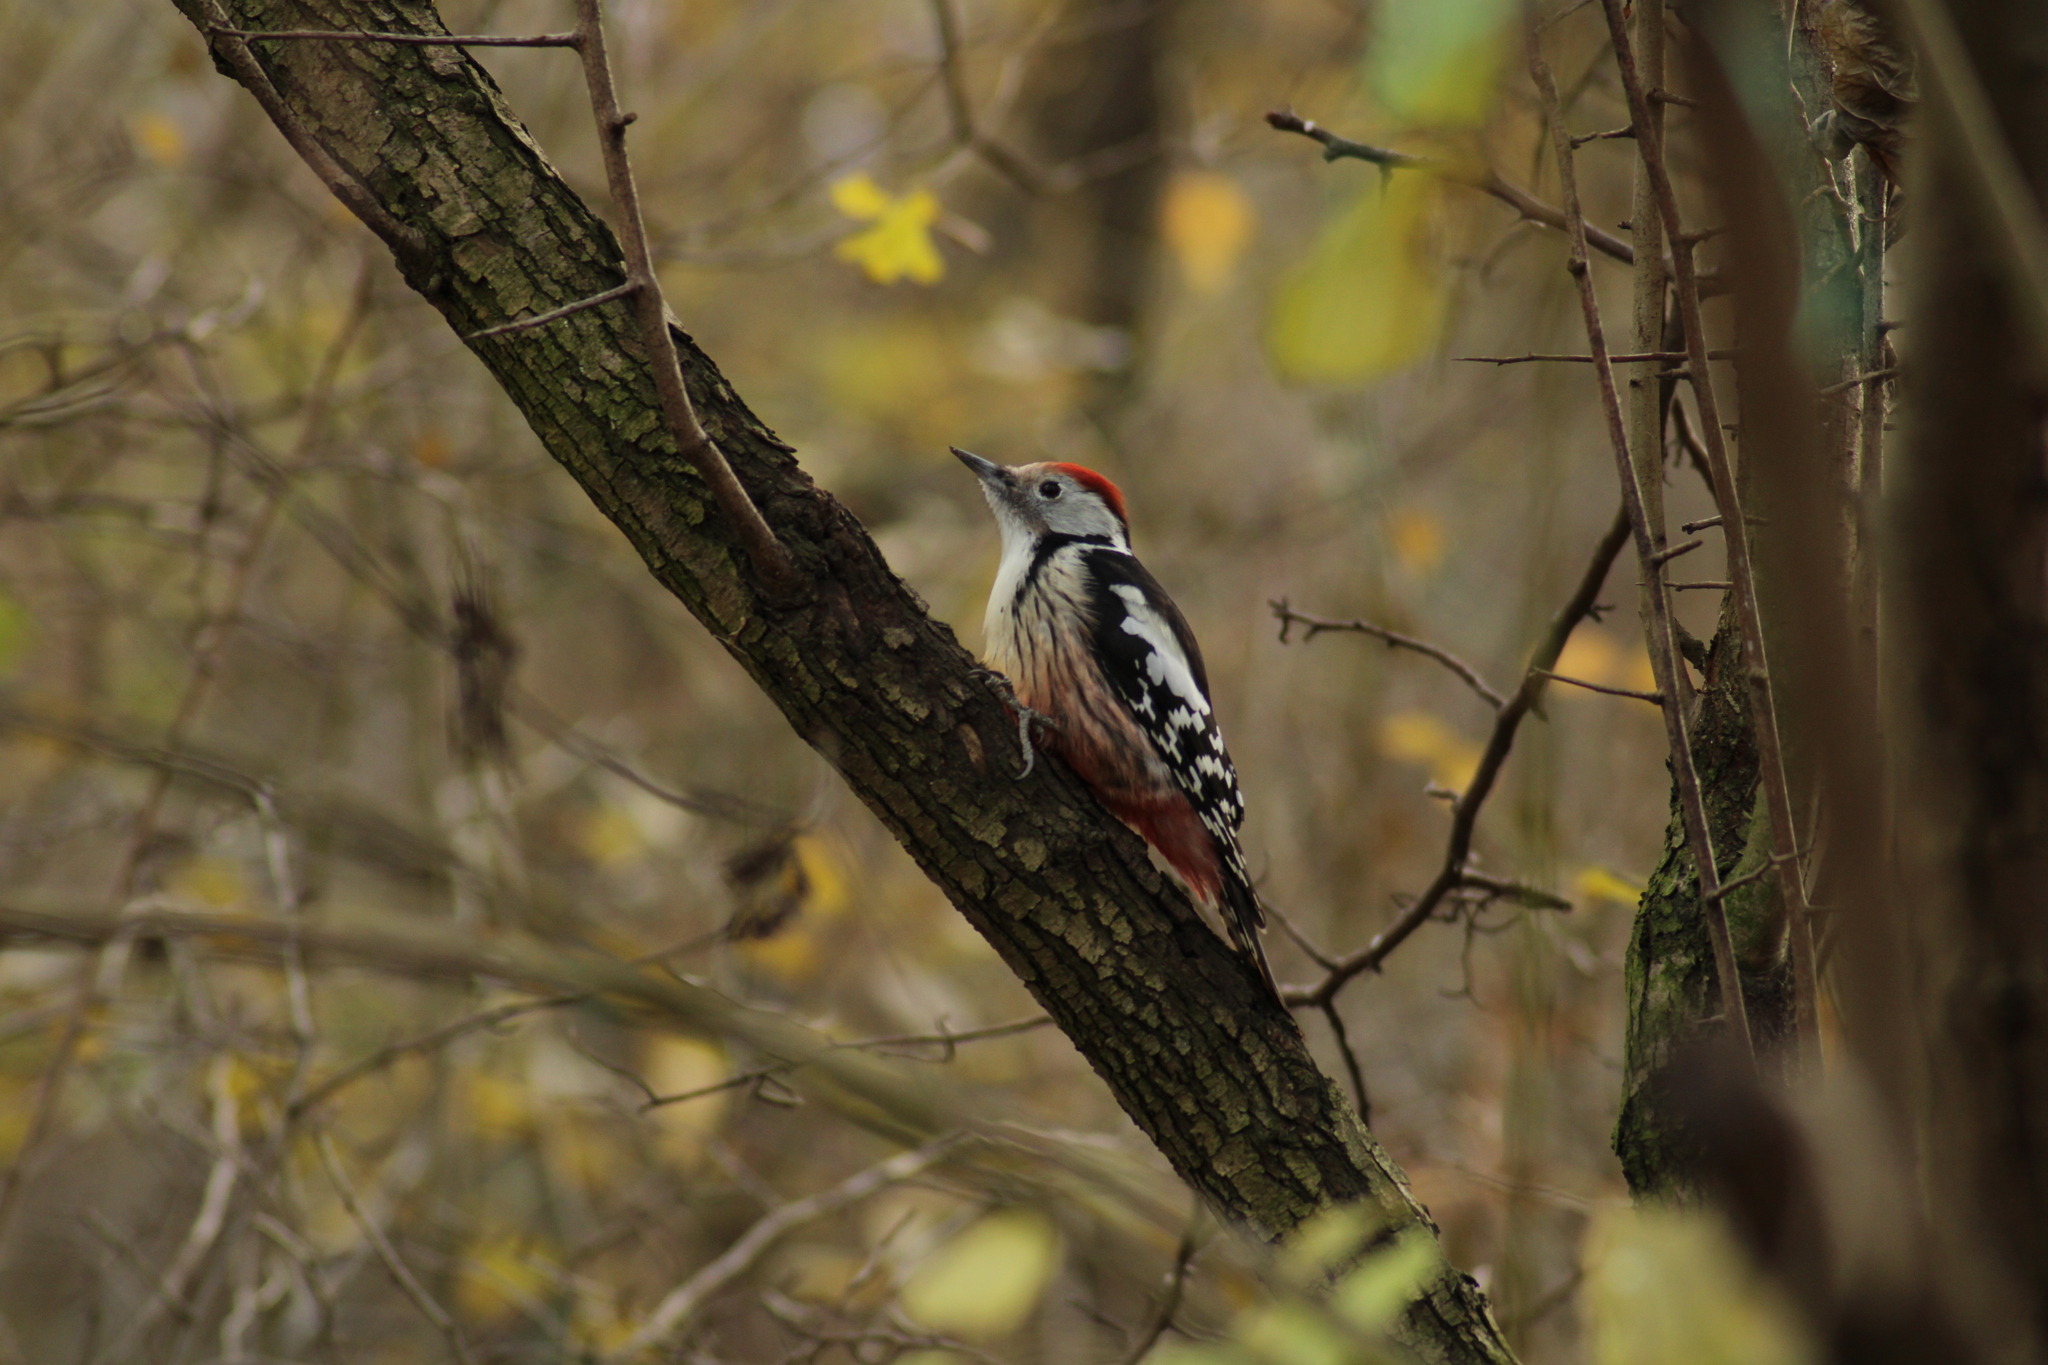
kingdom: Animalia
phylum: Chordata
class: Aves
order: Piciformes
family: Picidae
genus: Dendrocoptes
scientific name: Dendrocoptes medius
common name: Middle spotted woodpecker
